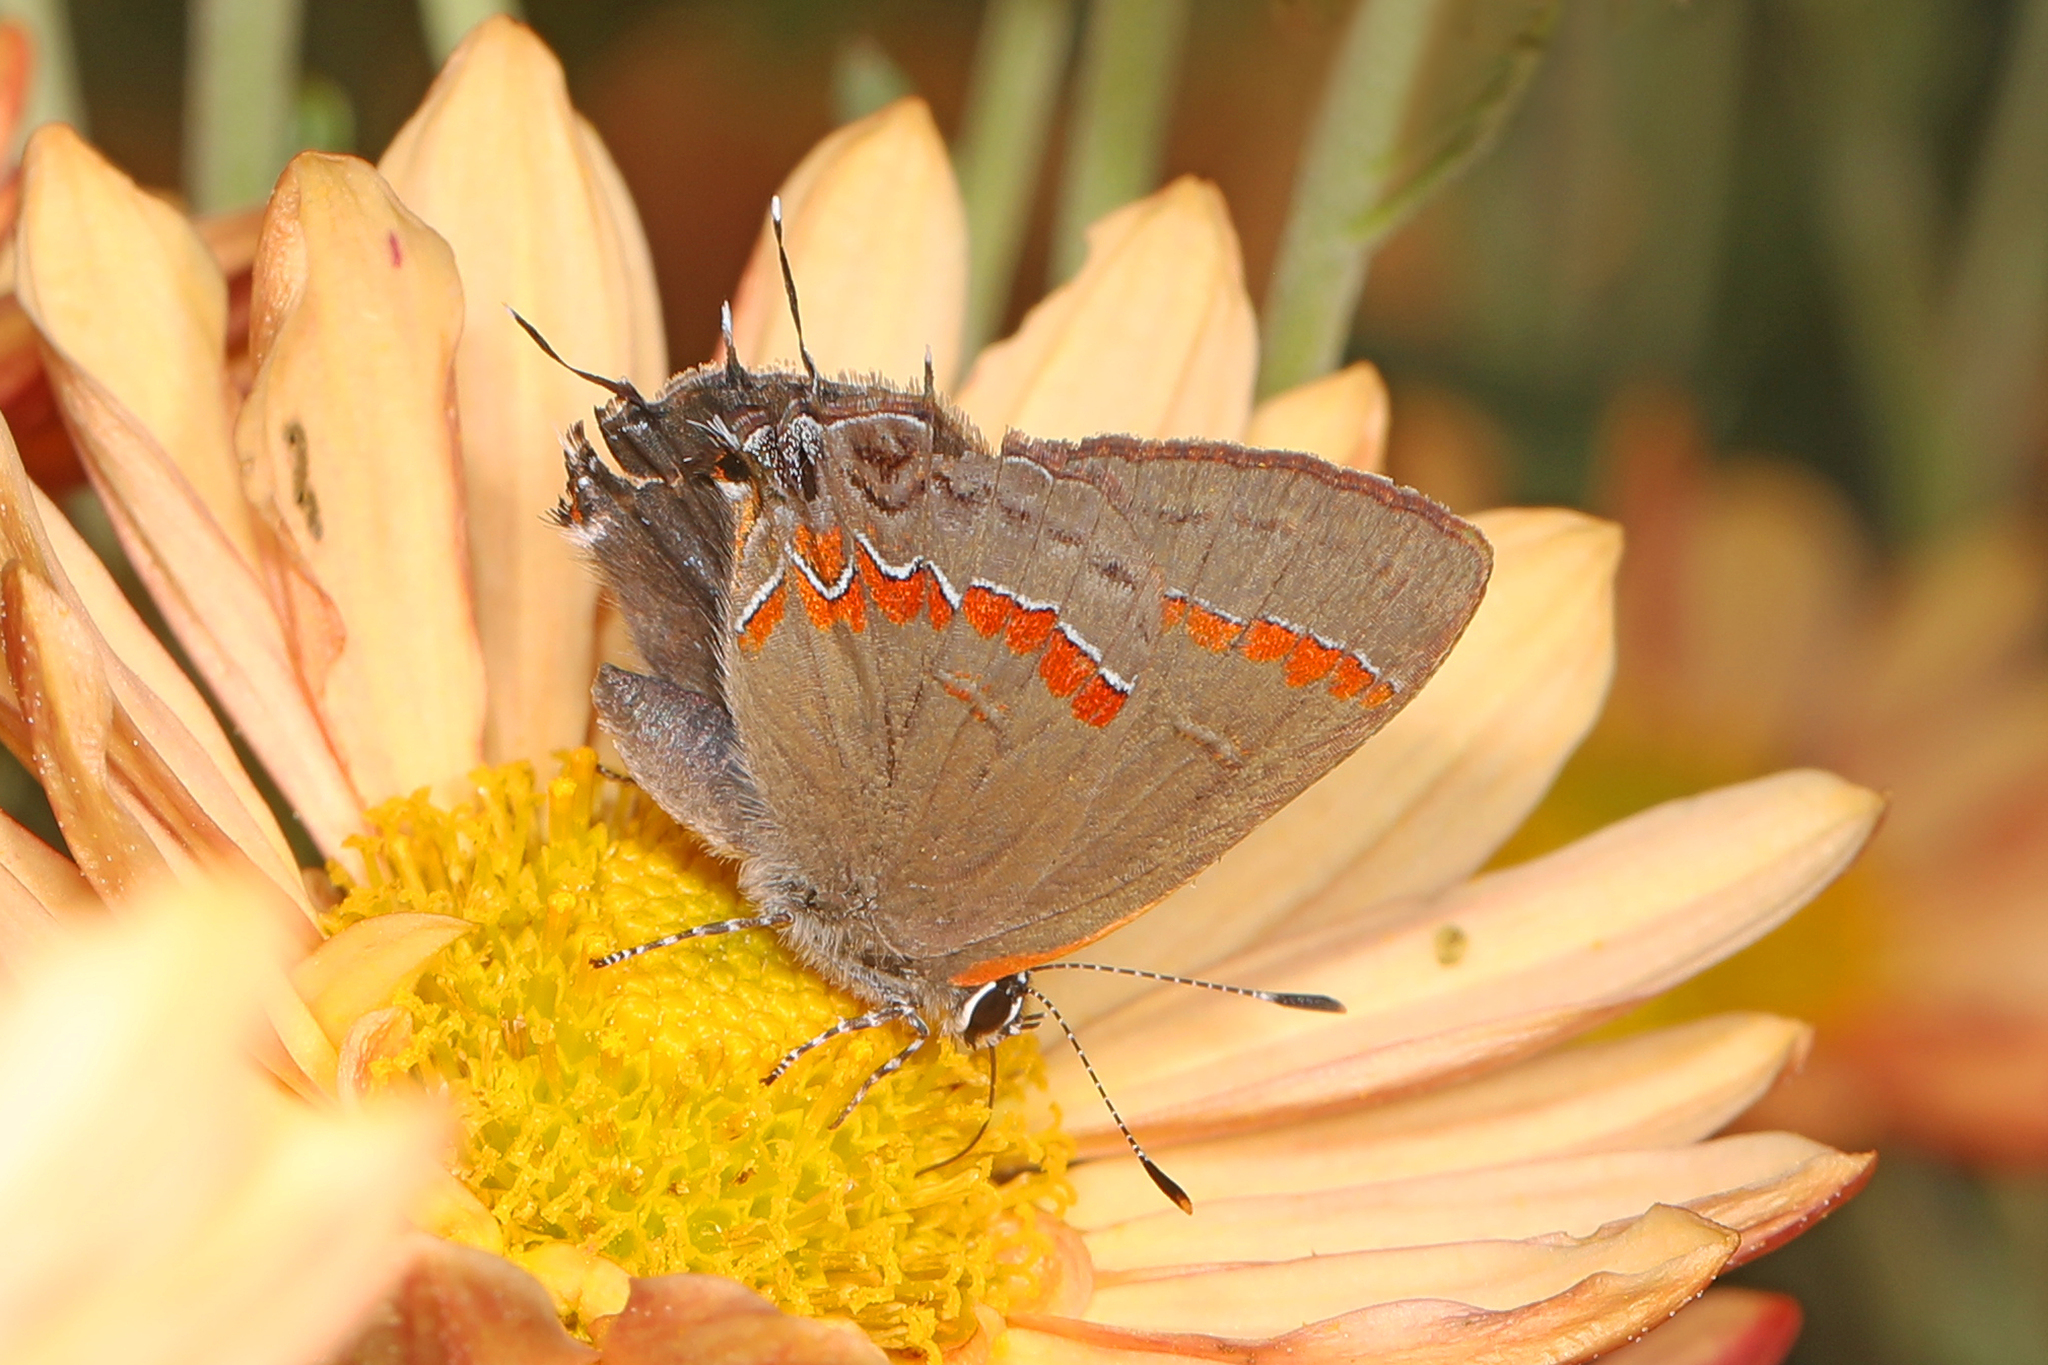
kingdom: Animalia
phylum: Arthropoda
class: Insecta
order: Lepidoptera
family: Lycaenidae
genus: Calycopis
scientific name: Calycopis cecrops
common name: Red-banded hairstreak
